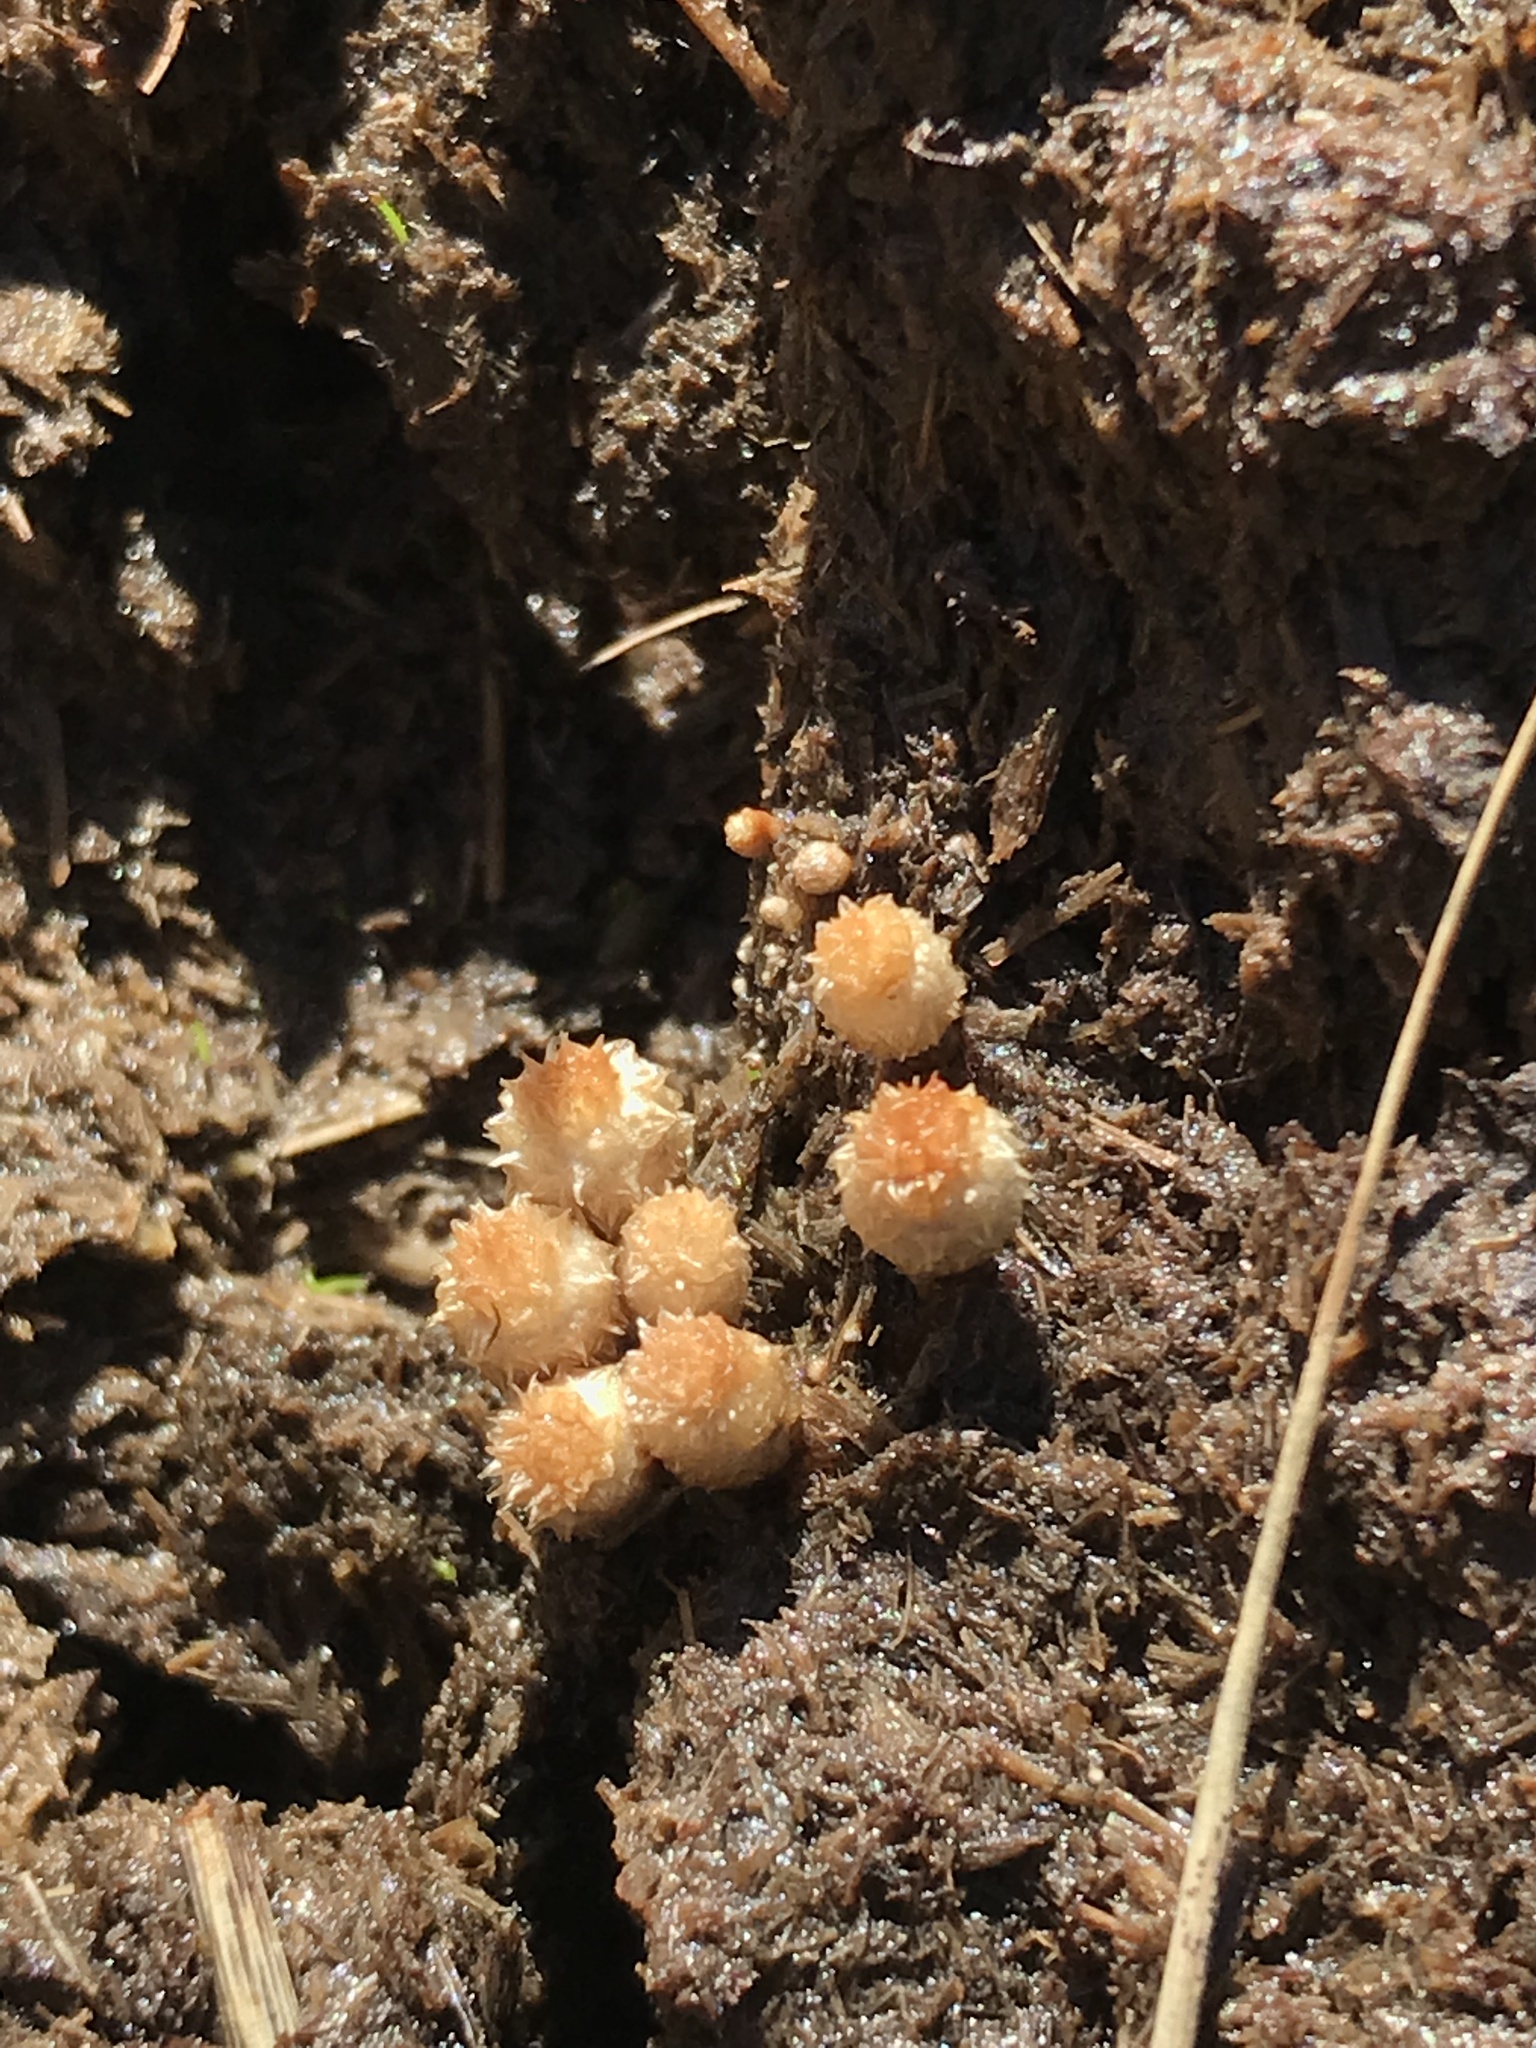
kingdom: Fungi
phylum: Basidiomycota
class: Agaricomycetes
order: Agaricales
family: Agaricaceae
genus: Cyathus
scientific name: Cyathus stercoreus
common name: Dung bird's nest
